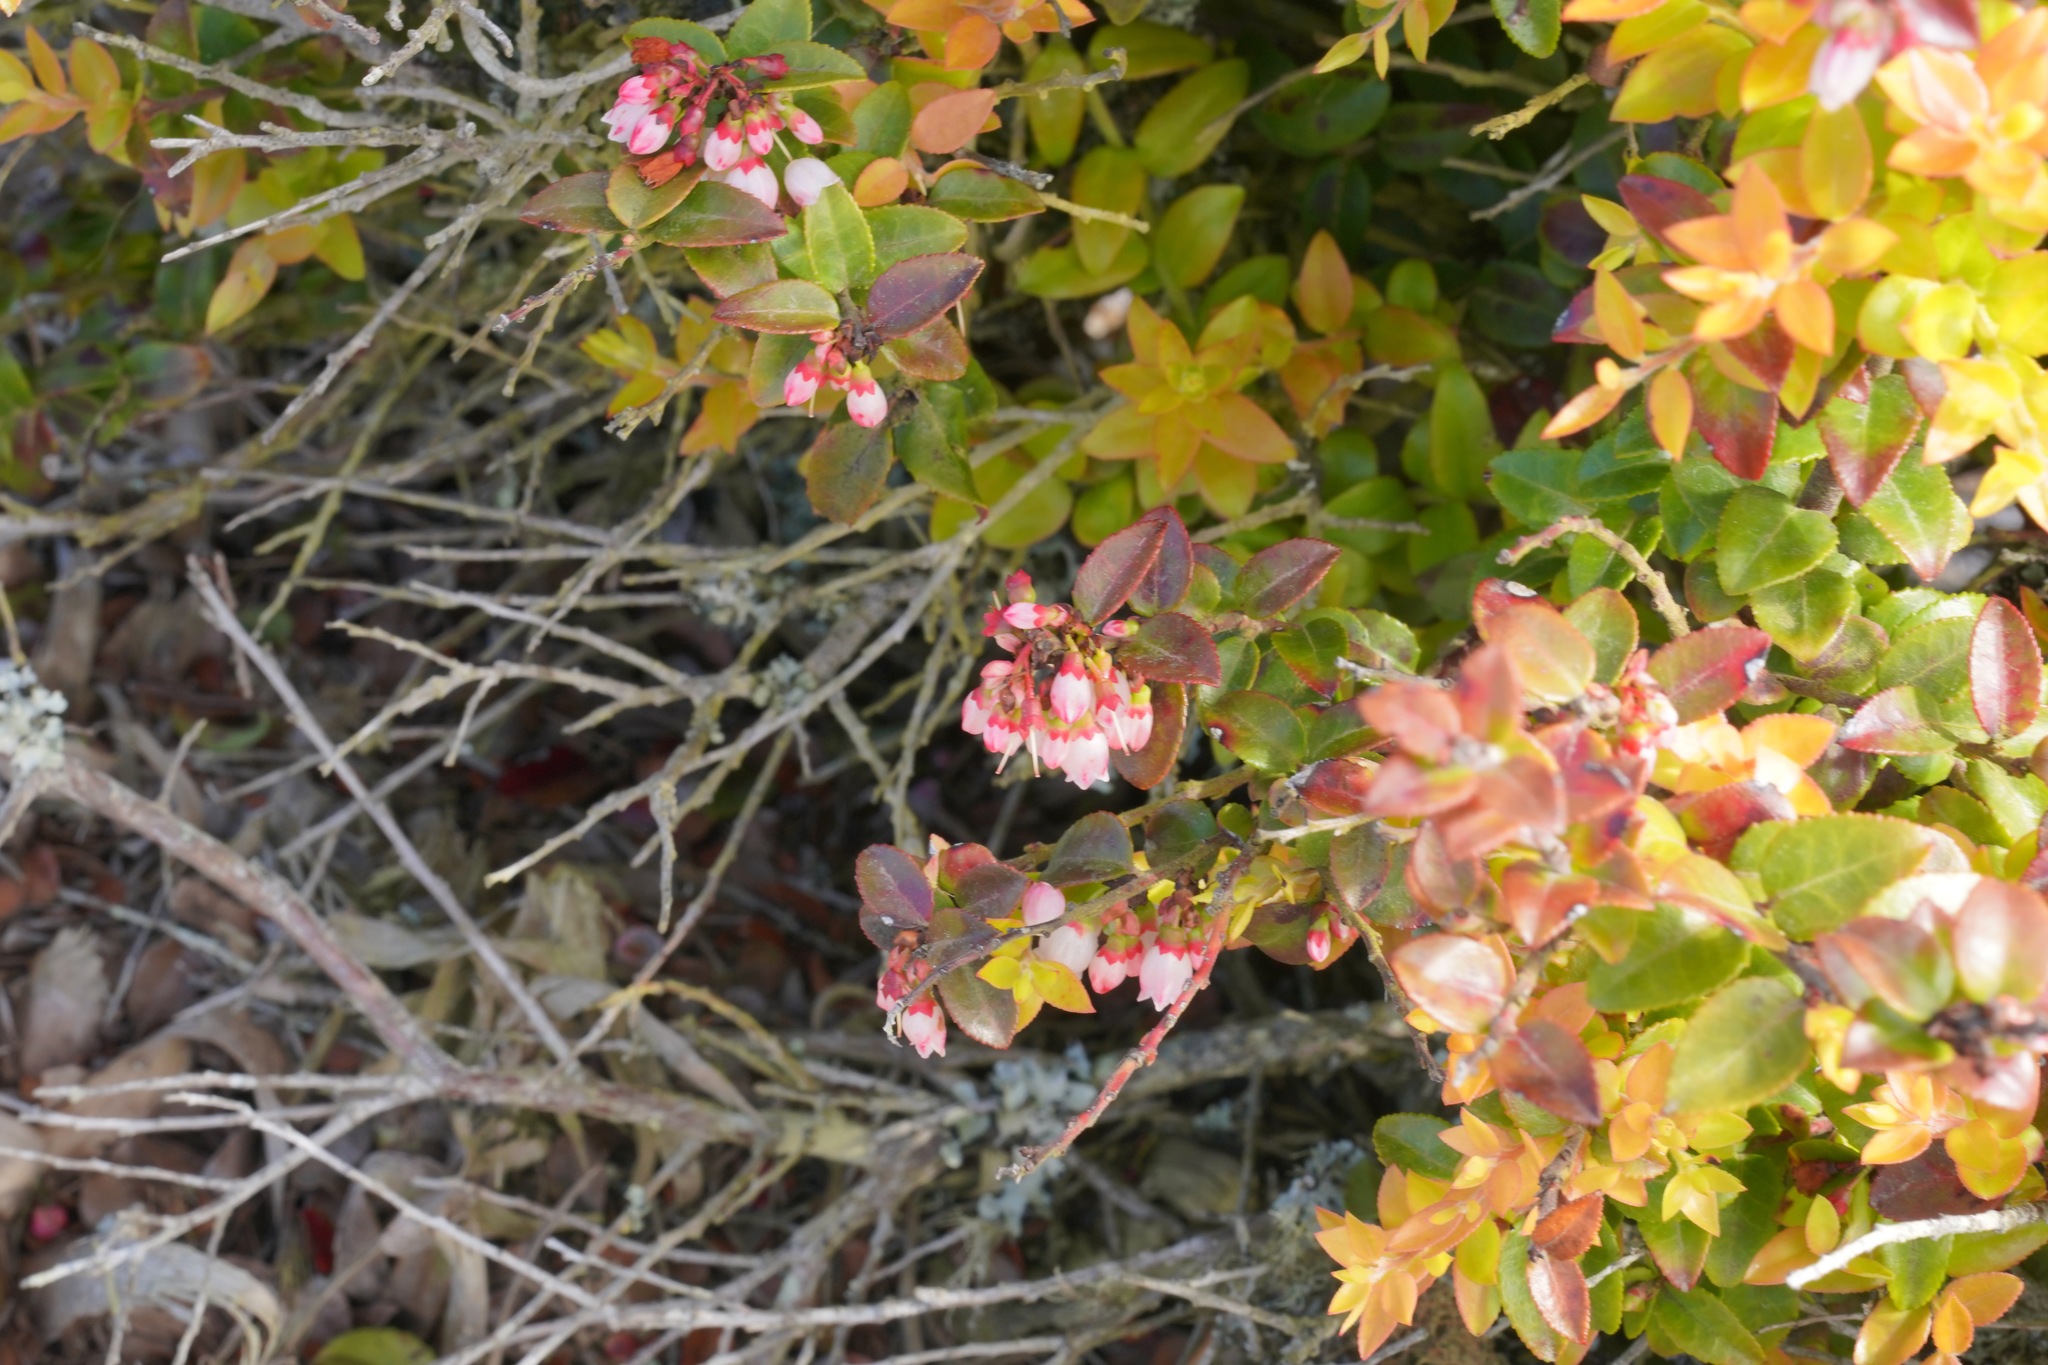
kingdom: Plantae
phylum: Tracheophyta
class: Magnoliopsida
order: Ericales
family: Ericaceae
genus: Vaccinium
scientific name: Vaccinium ovatum
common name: California-huckleberry
